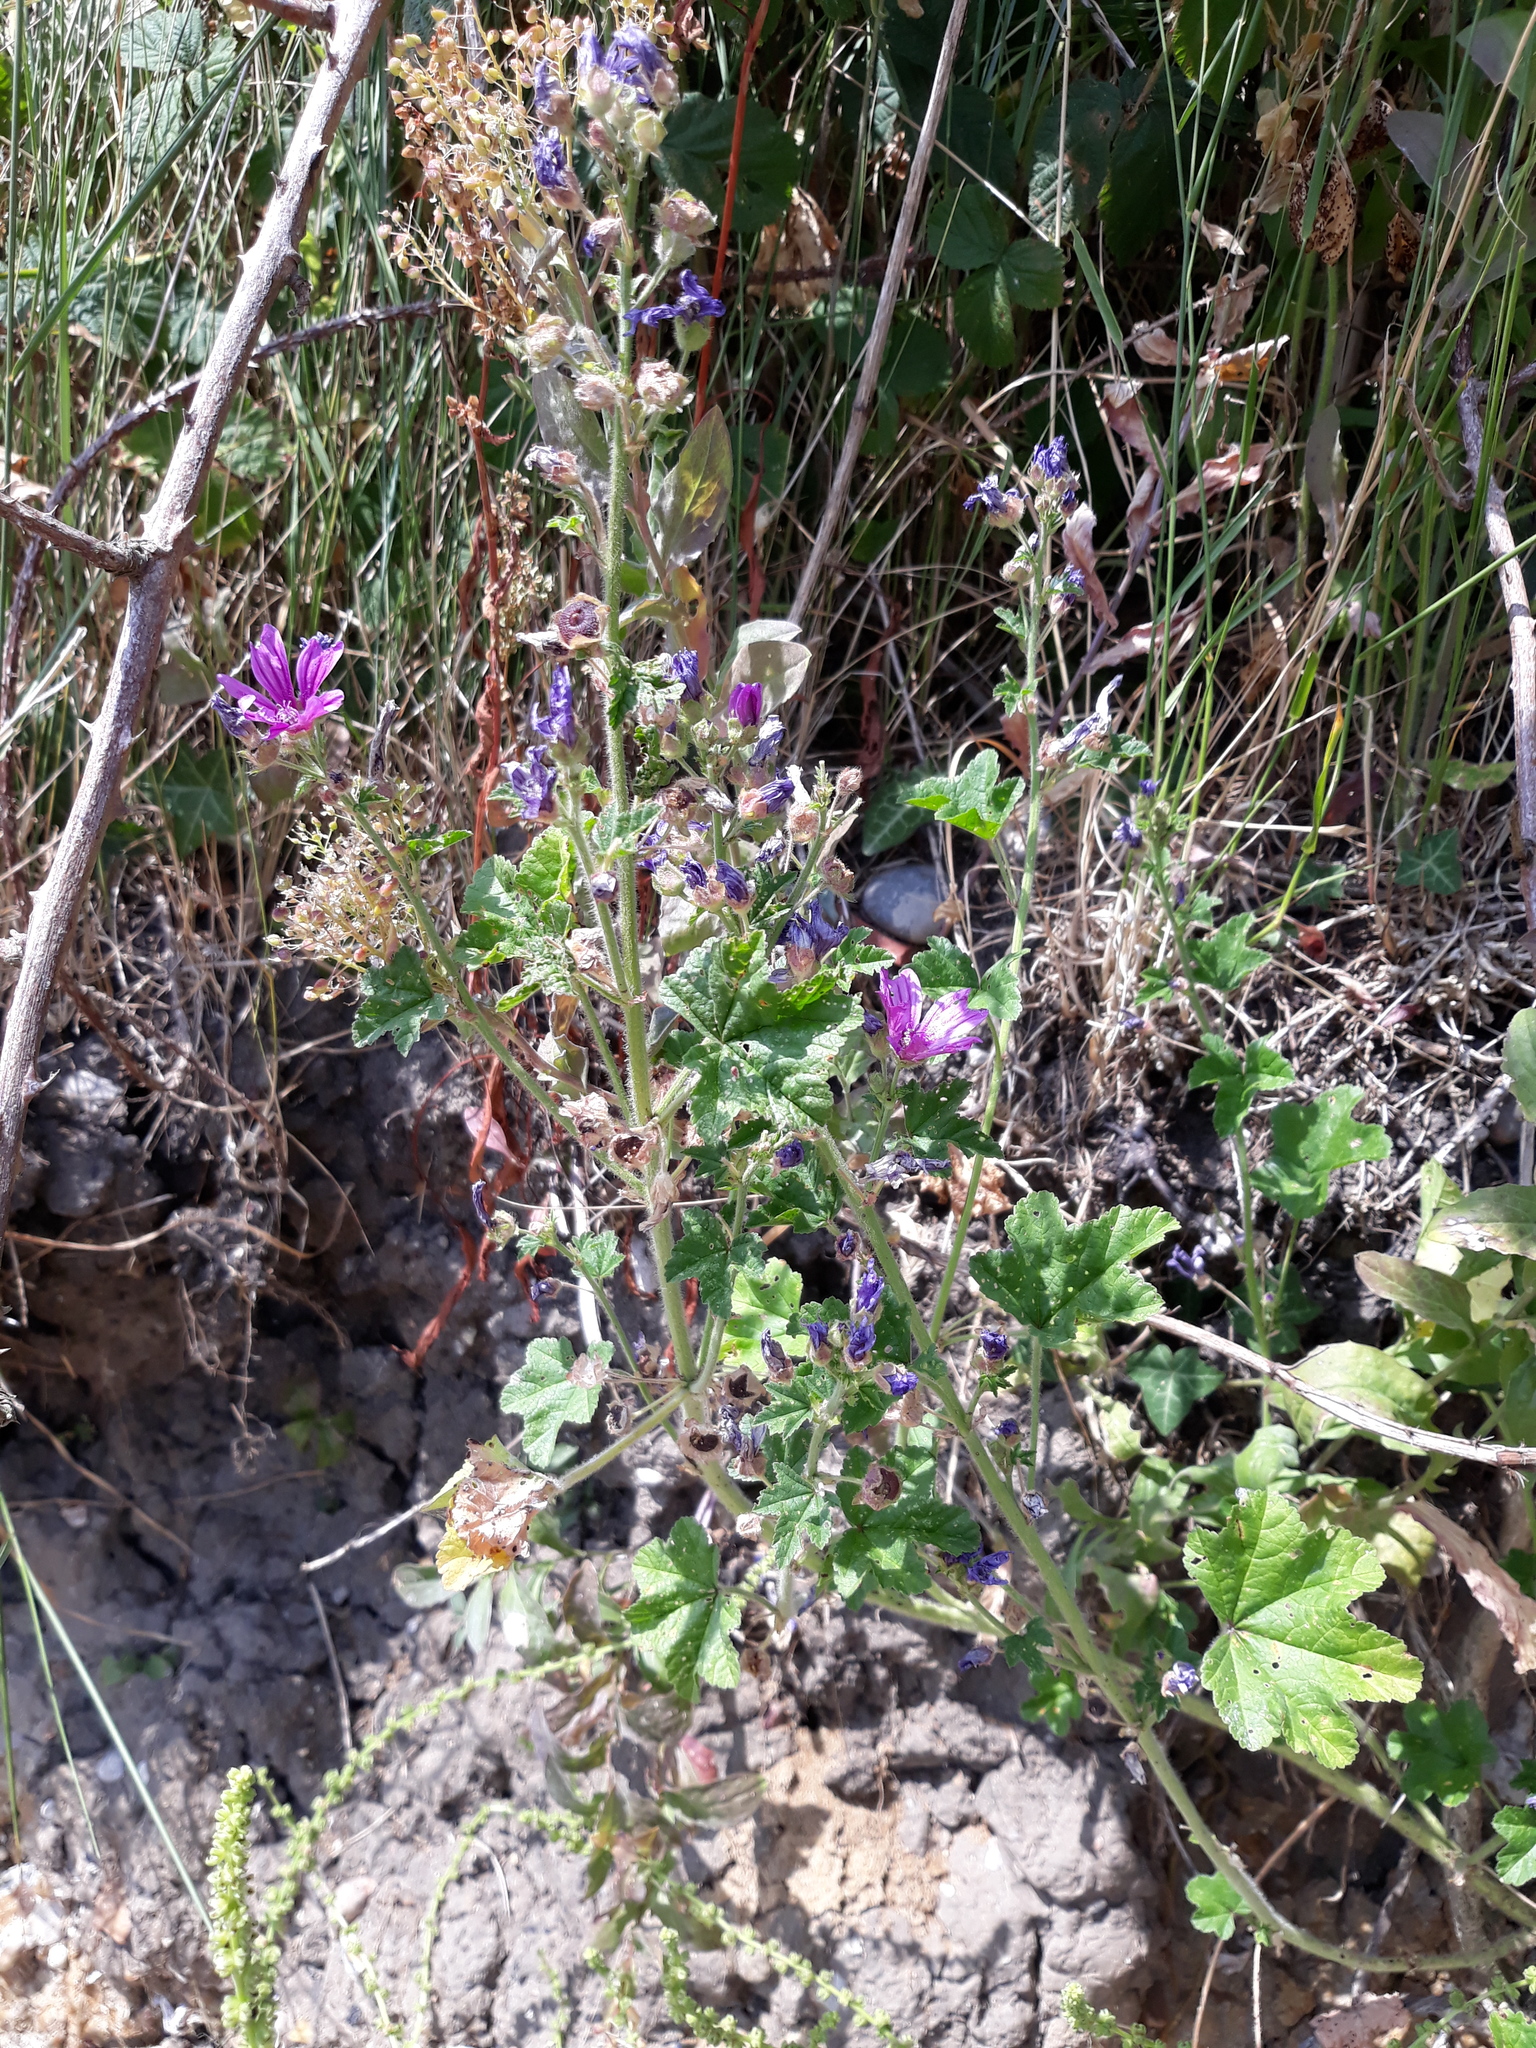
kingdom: Plantae
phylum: Tracheophyta
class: Magnoliopsida
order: Malvales
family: Malvaceae
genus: Malva
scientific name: Malva sylvestris
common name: Common mallow
